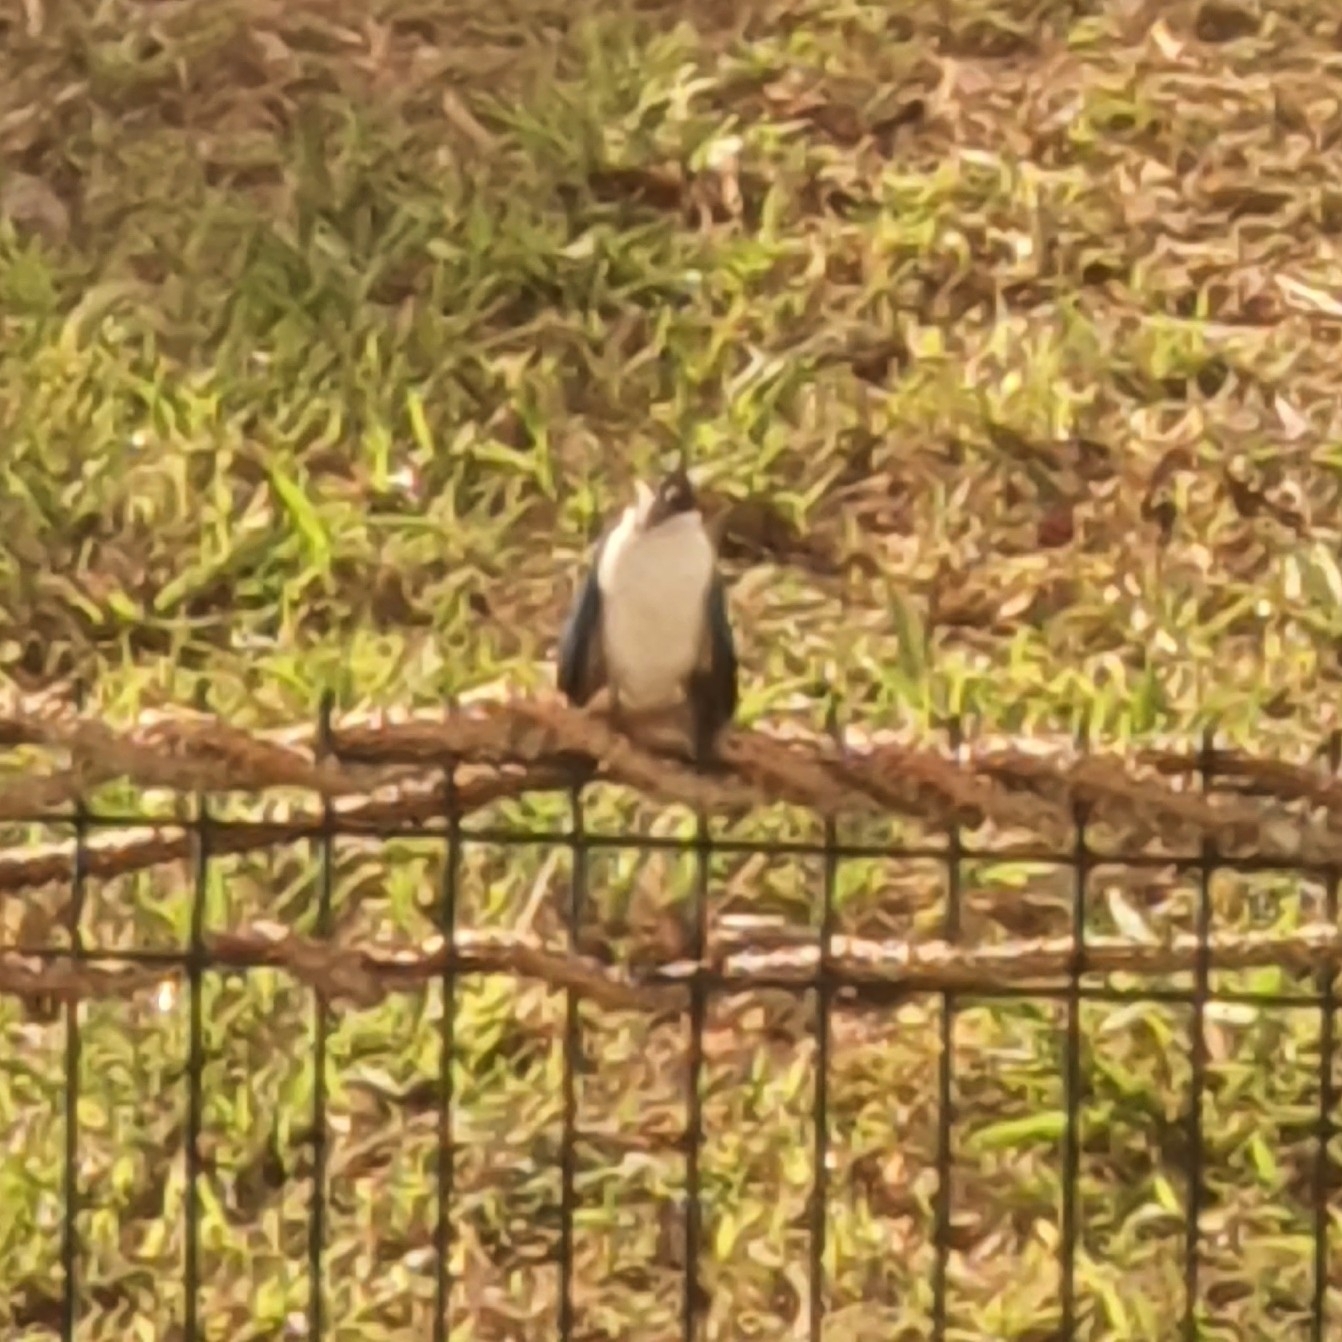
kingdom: Animalia
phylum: Chordata
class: Aves
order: Coraciiformes
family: Alcedinidae
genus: Todiramphus
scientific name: Todiramphus chloris
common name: Collared kingfisher
